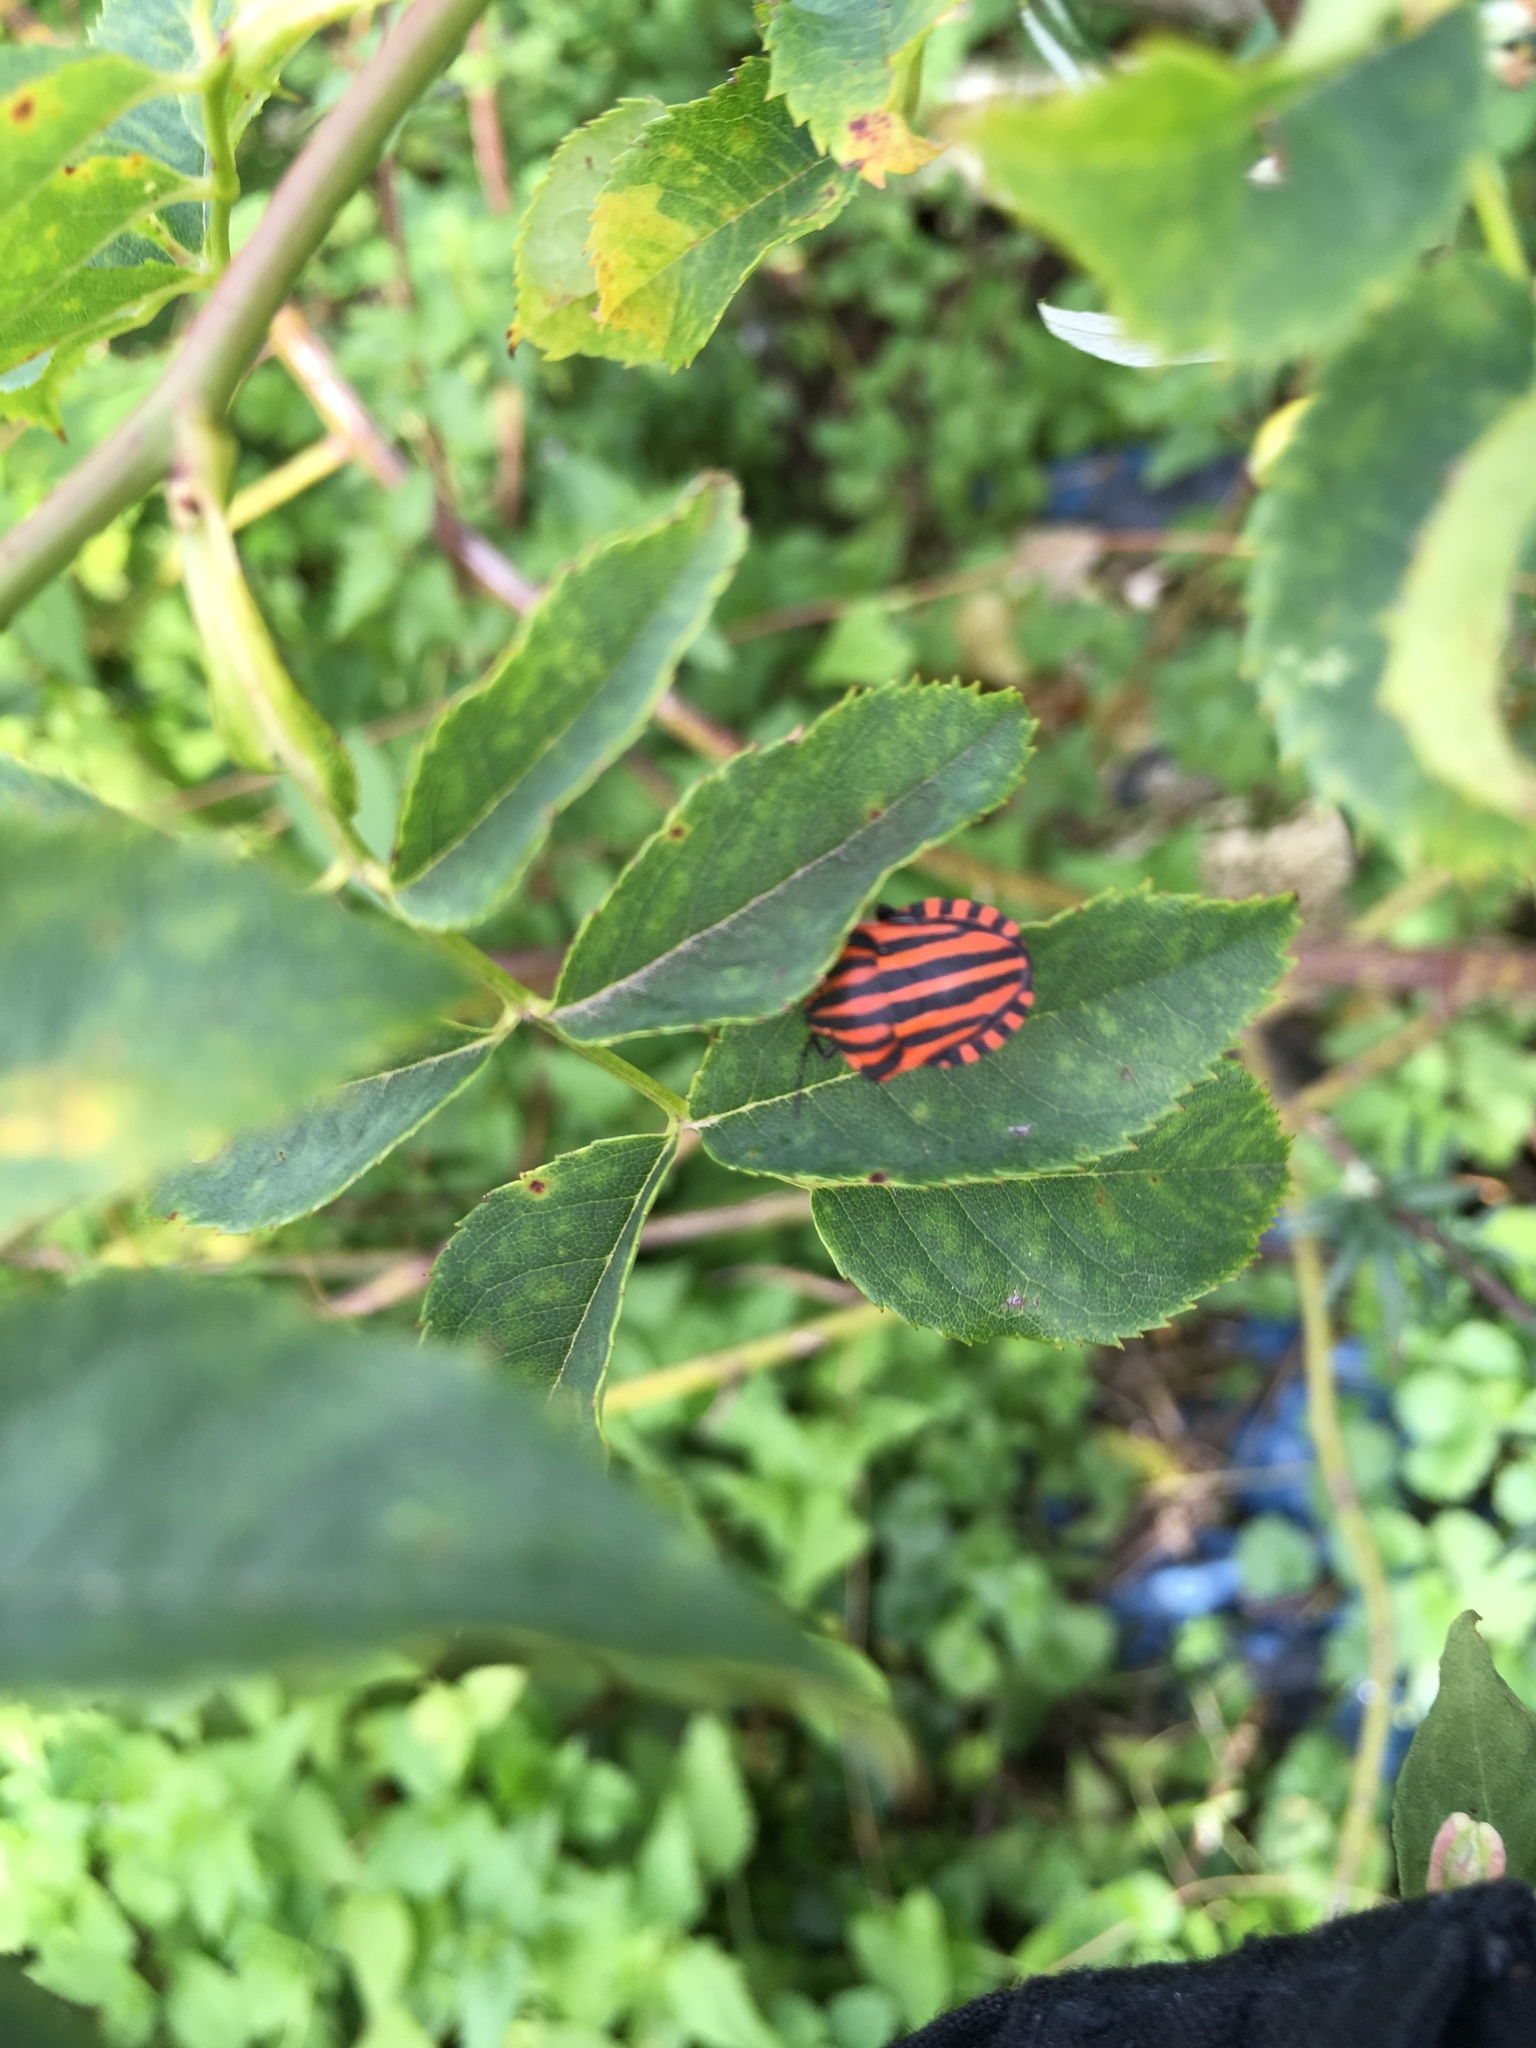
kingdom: Animalia
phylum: Arthropoda
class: Insecta
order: Hemiptera
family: Pentatomidae
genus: Graphosoma
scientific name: Graphosoma italicum
